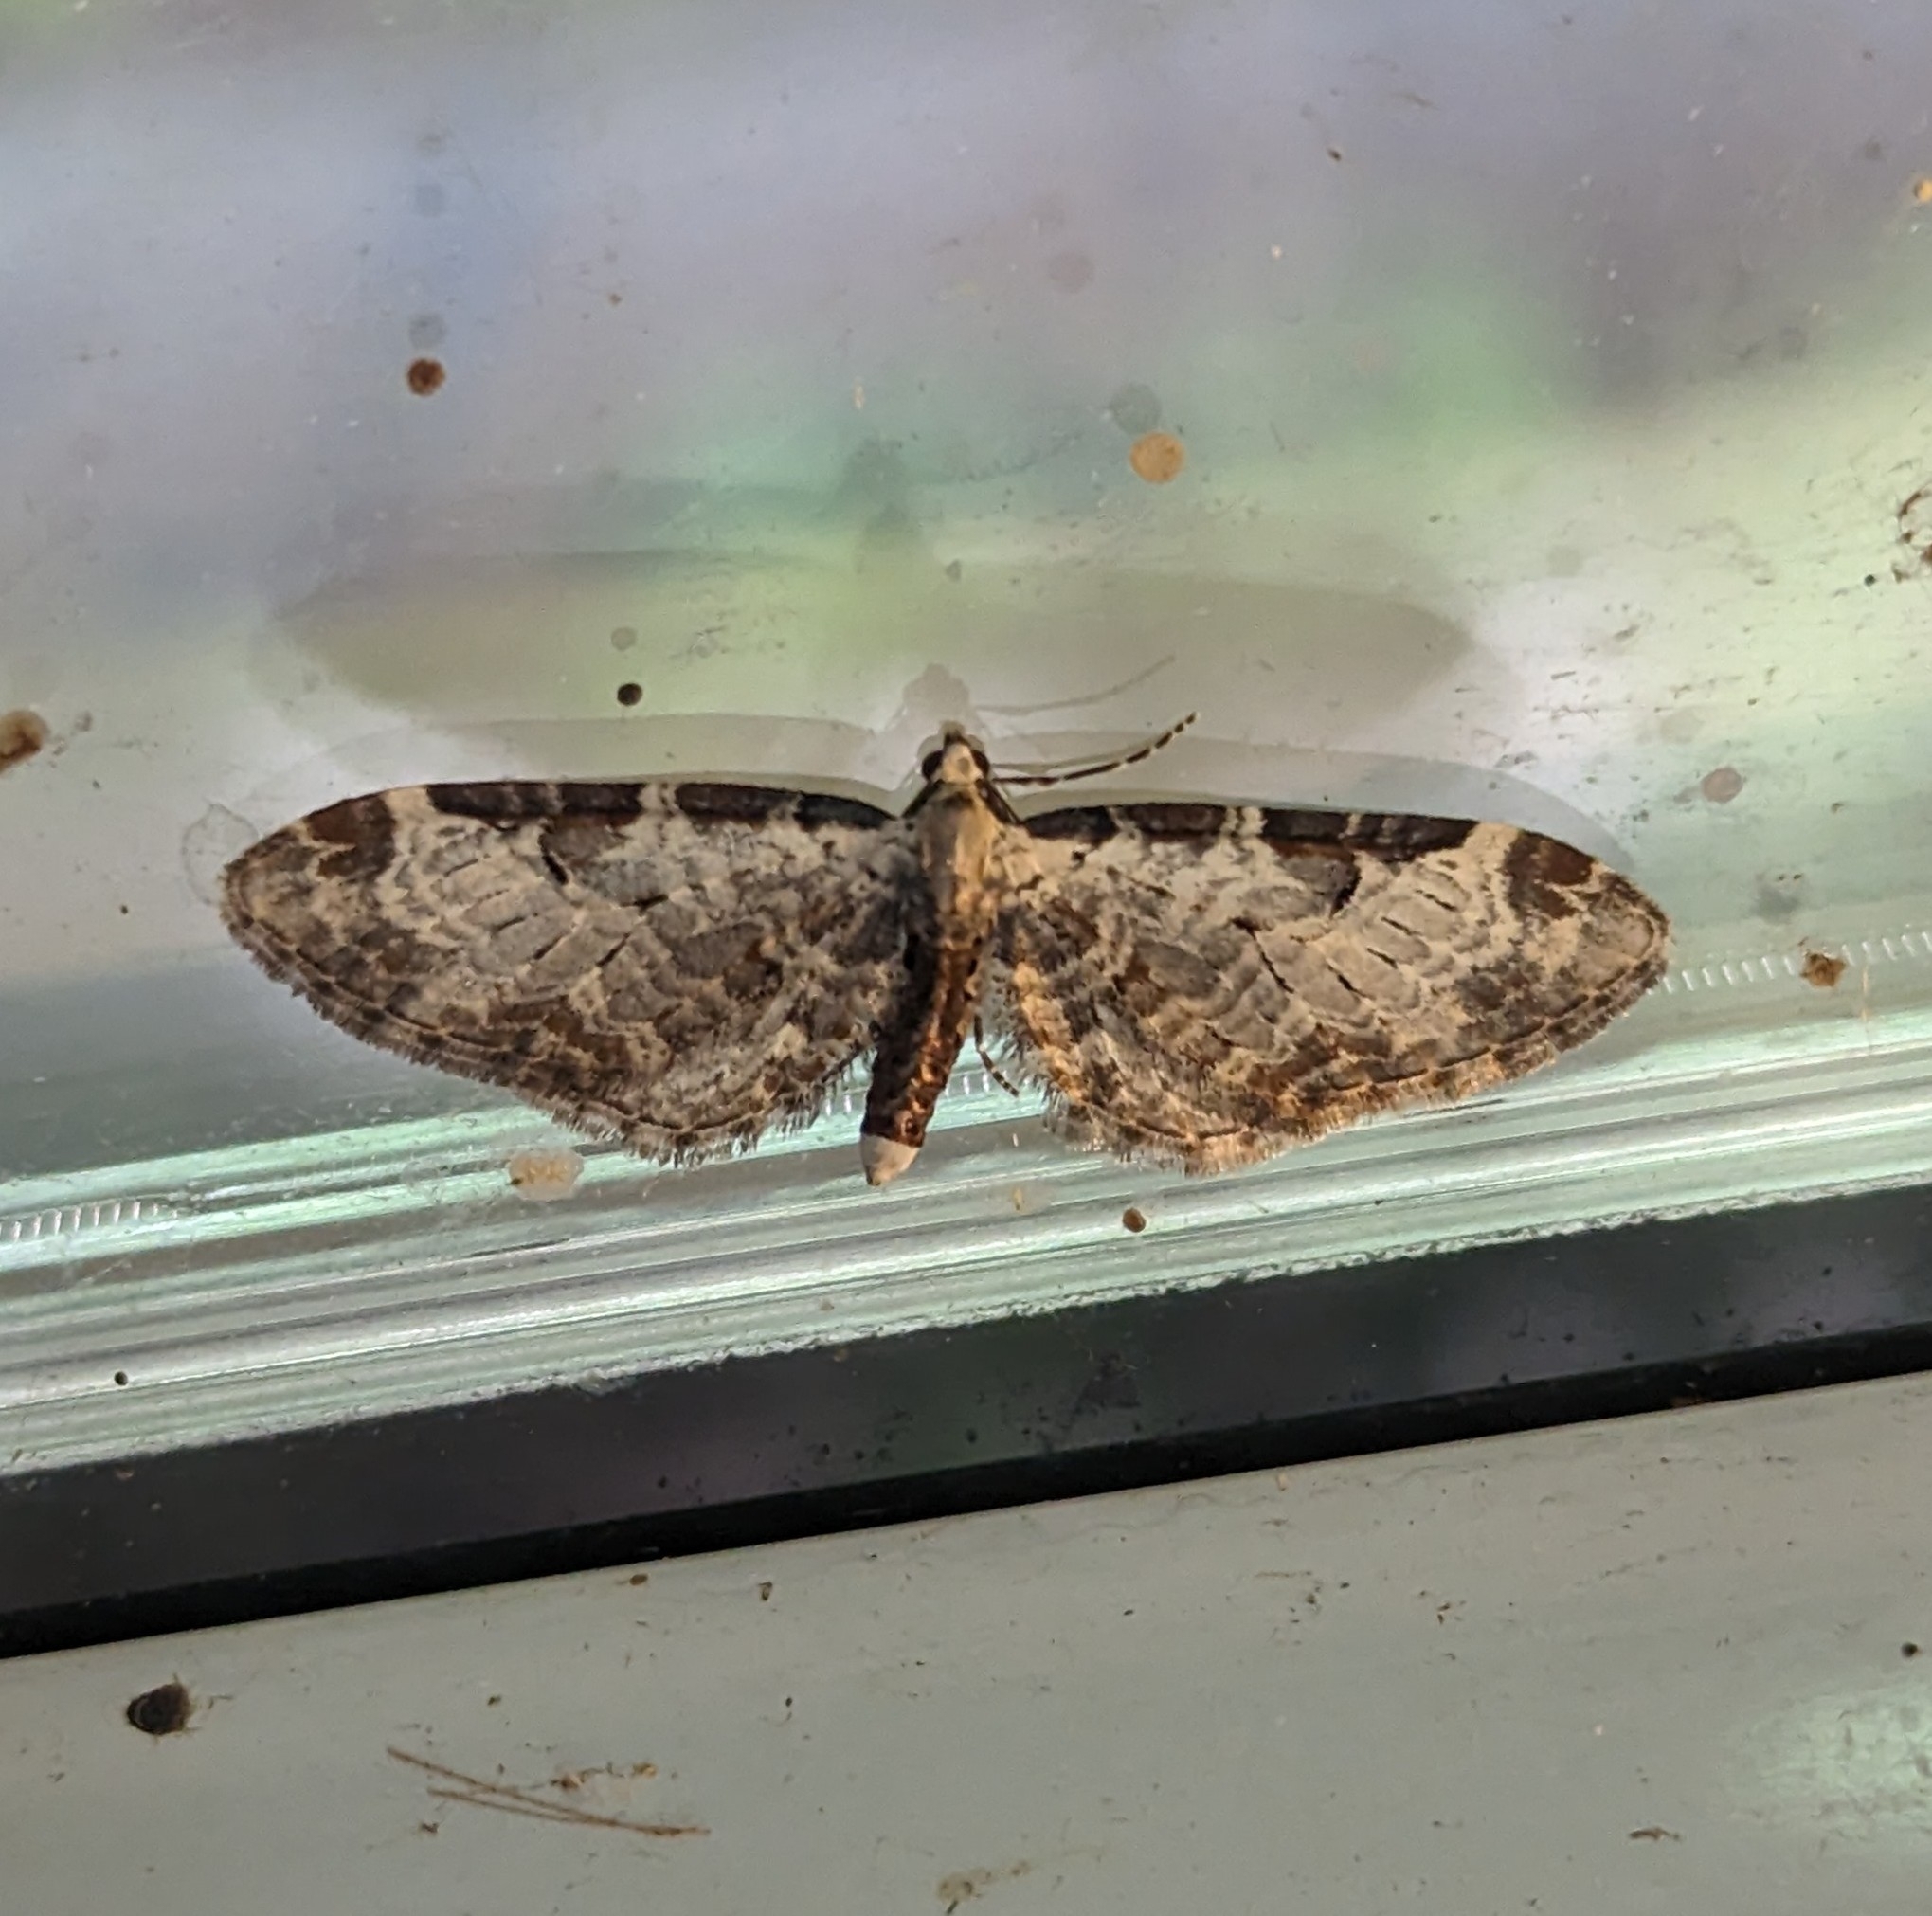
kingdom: Animalia
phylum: Arthropoda
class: Insecta
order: Lepidoptera
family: Geometridae
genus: Eupithecia
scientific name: Eupithecia ravocostaliata
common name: Great varigated pug
